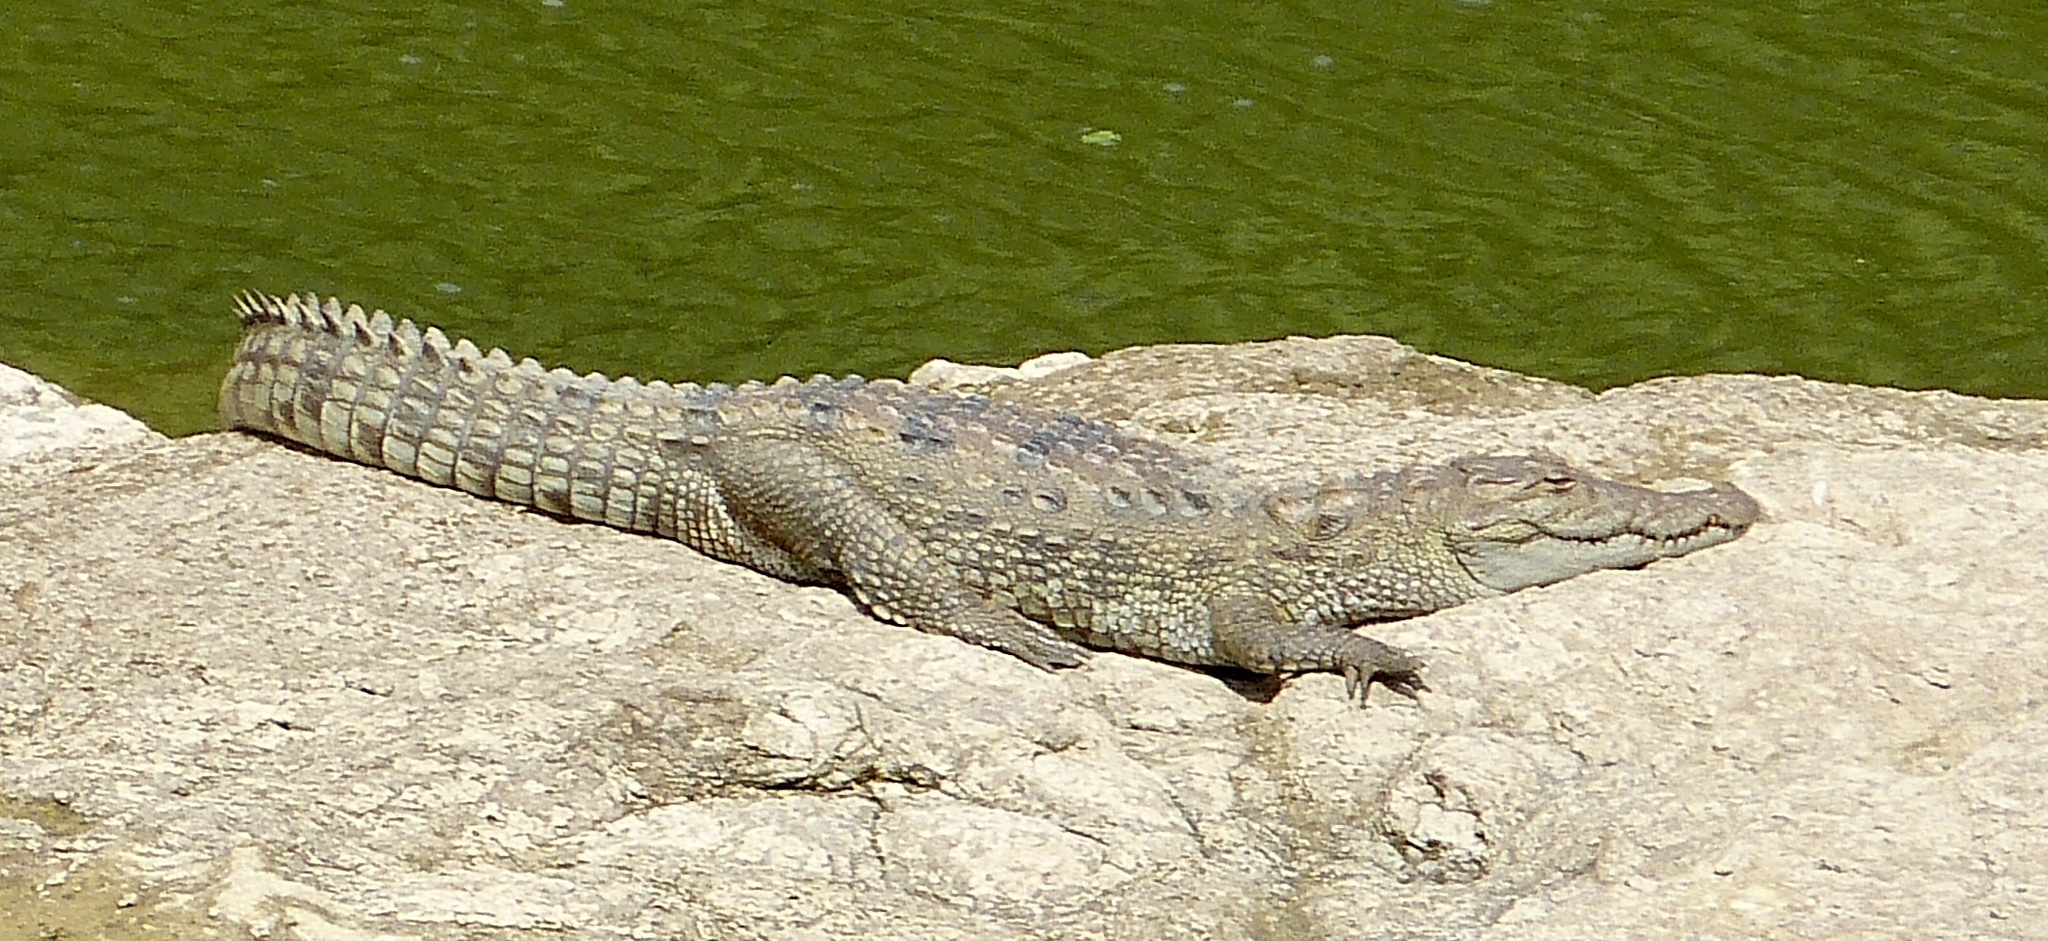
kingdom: Animalia
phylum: Chordata
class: Crocodylia
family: Crocodylidae
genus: Crocodylus
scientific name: Crocodylus palustris
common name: Mugger crocodile
